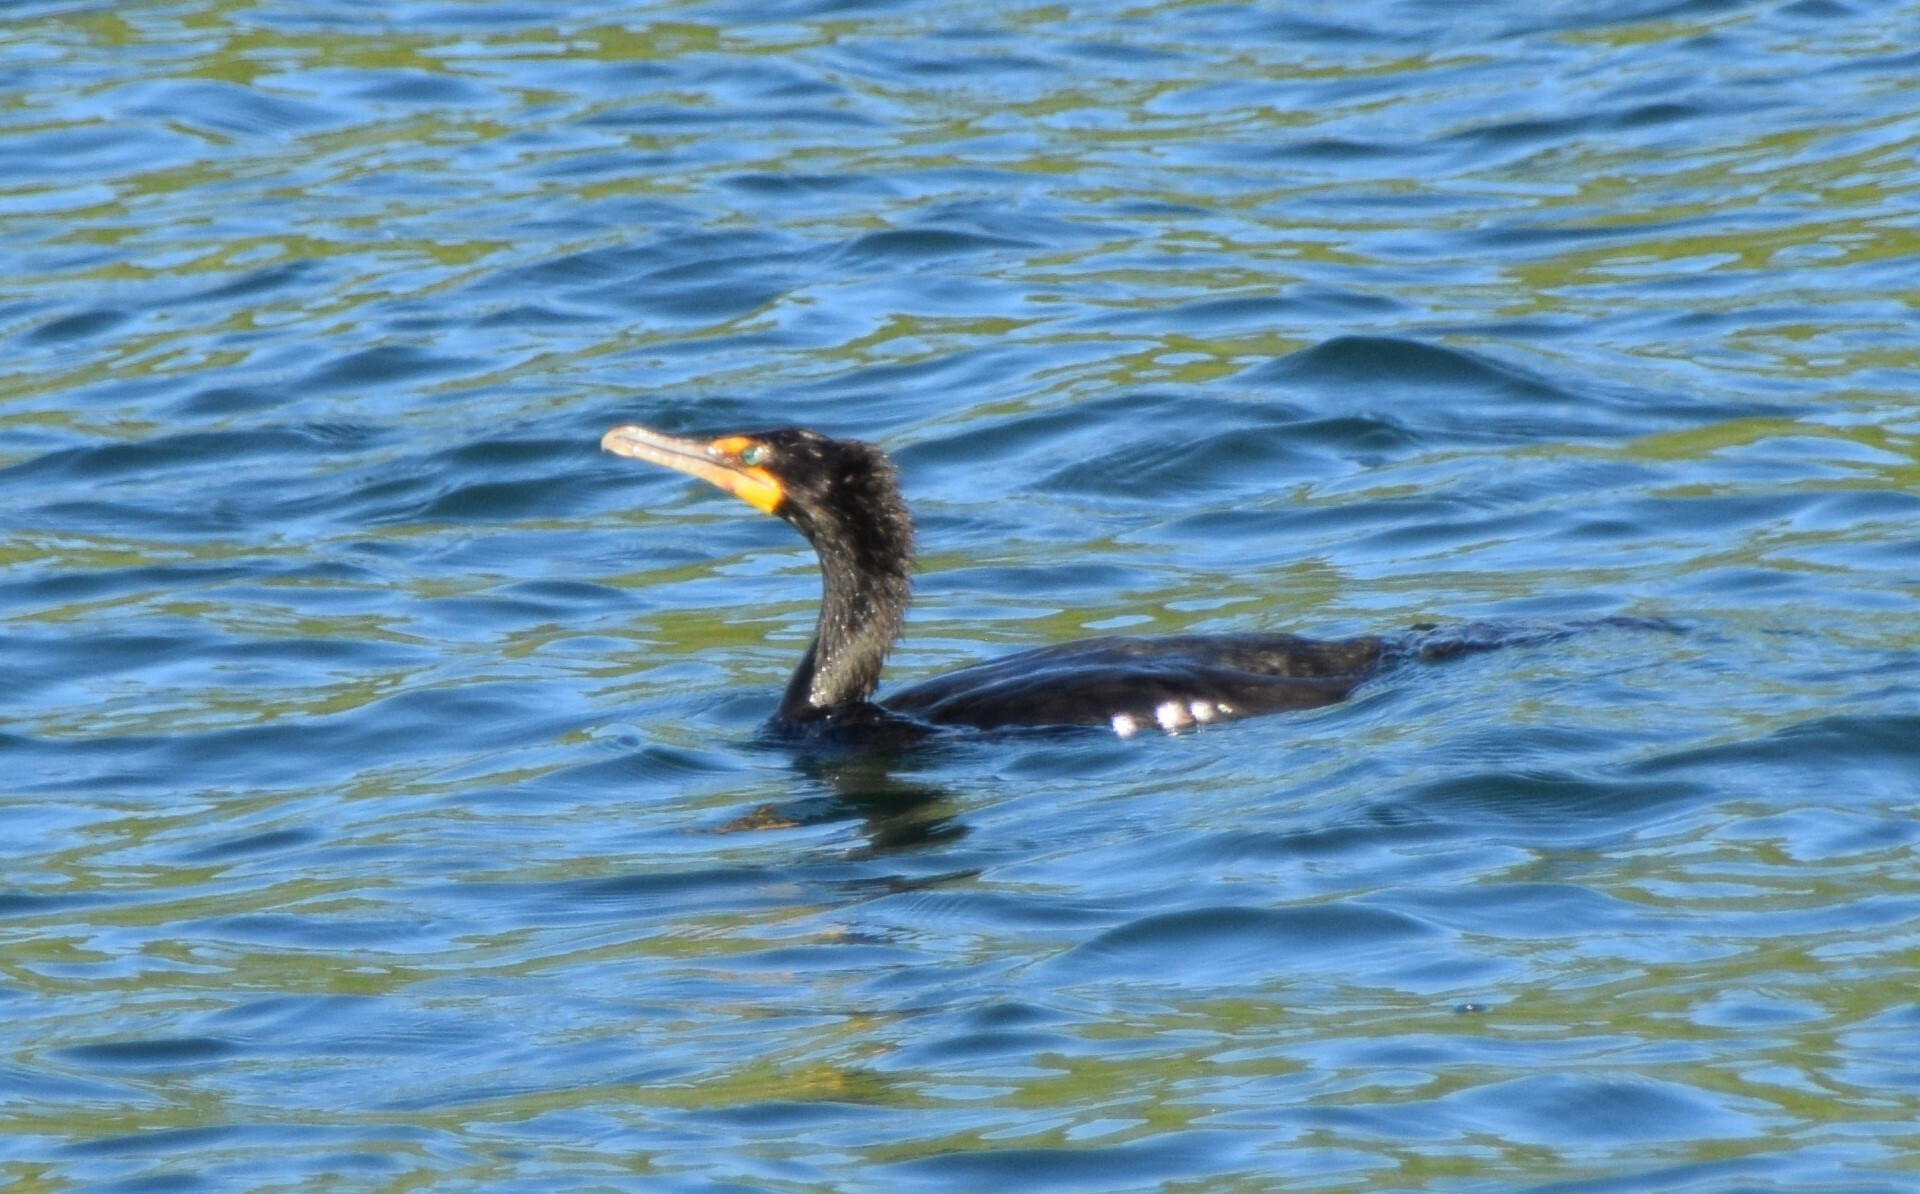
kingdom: Animalia
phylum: Chordata
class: Aves
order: Suliformes
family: Phalacrocoracidae
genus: Phalacrocorax
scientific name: Phalacrocorax auritus
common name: Double-crested cormorant
